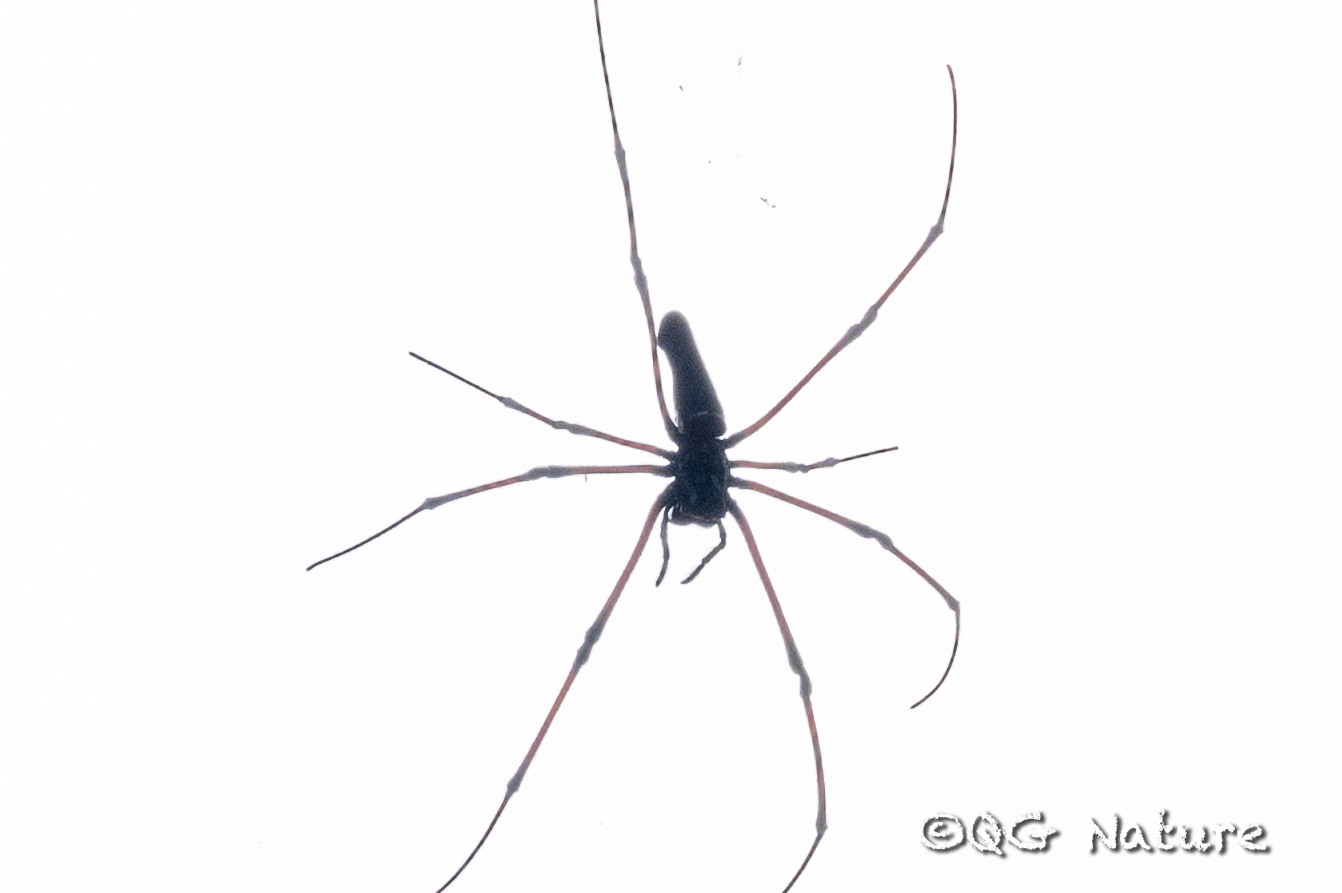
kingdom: Animalia
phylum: Arthropoda
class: Arachnida
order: Araneae
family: Araneidae
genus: Nephila
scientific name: Nephila pilipes
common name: Giant golden orb weaver
